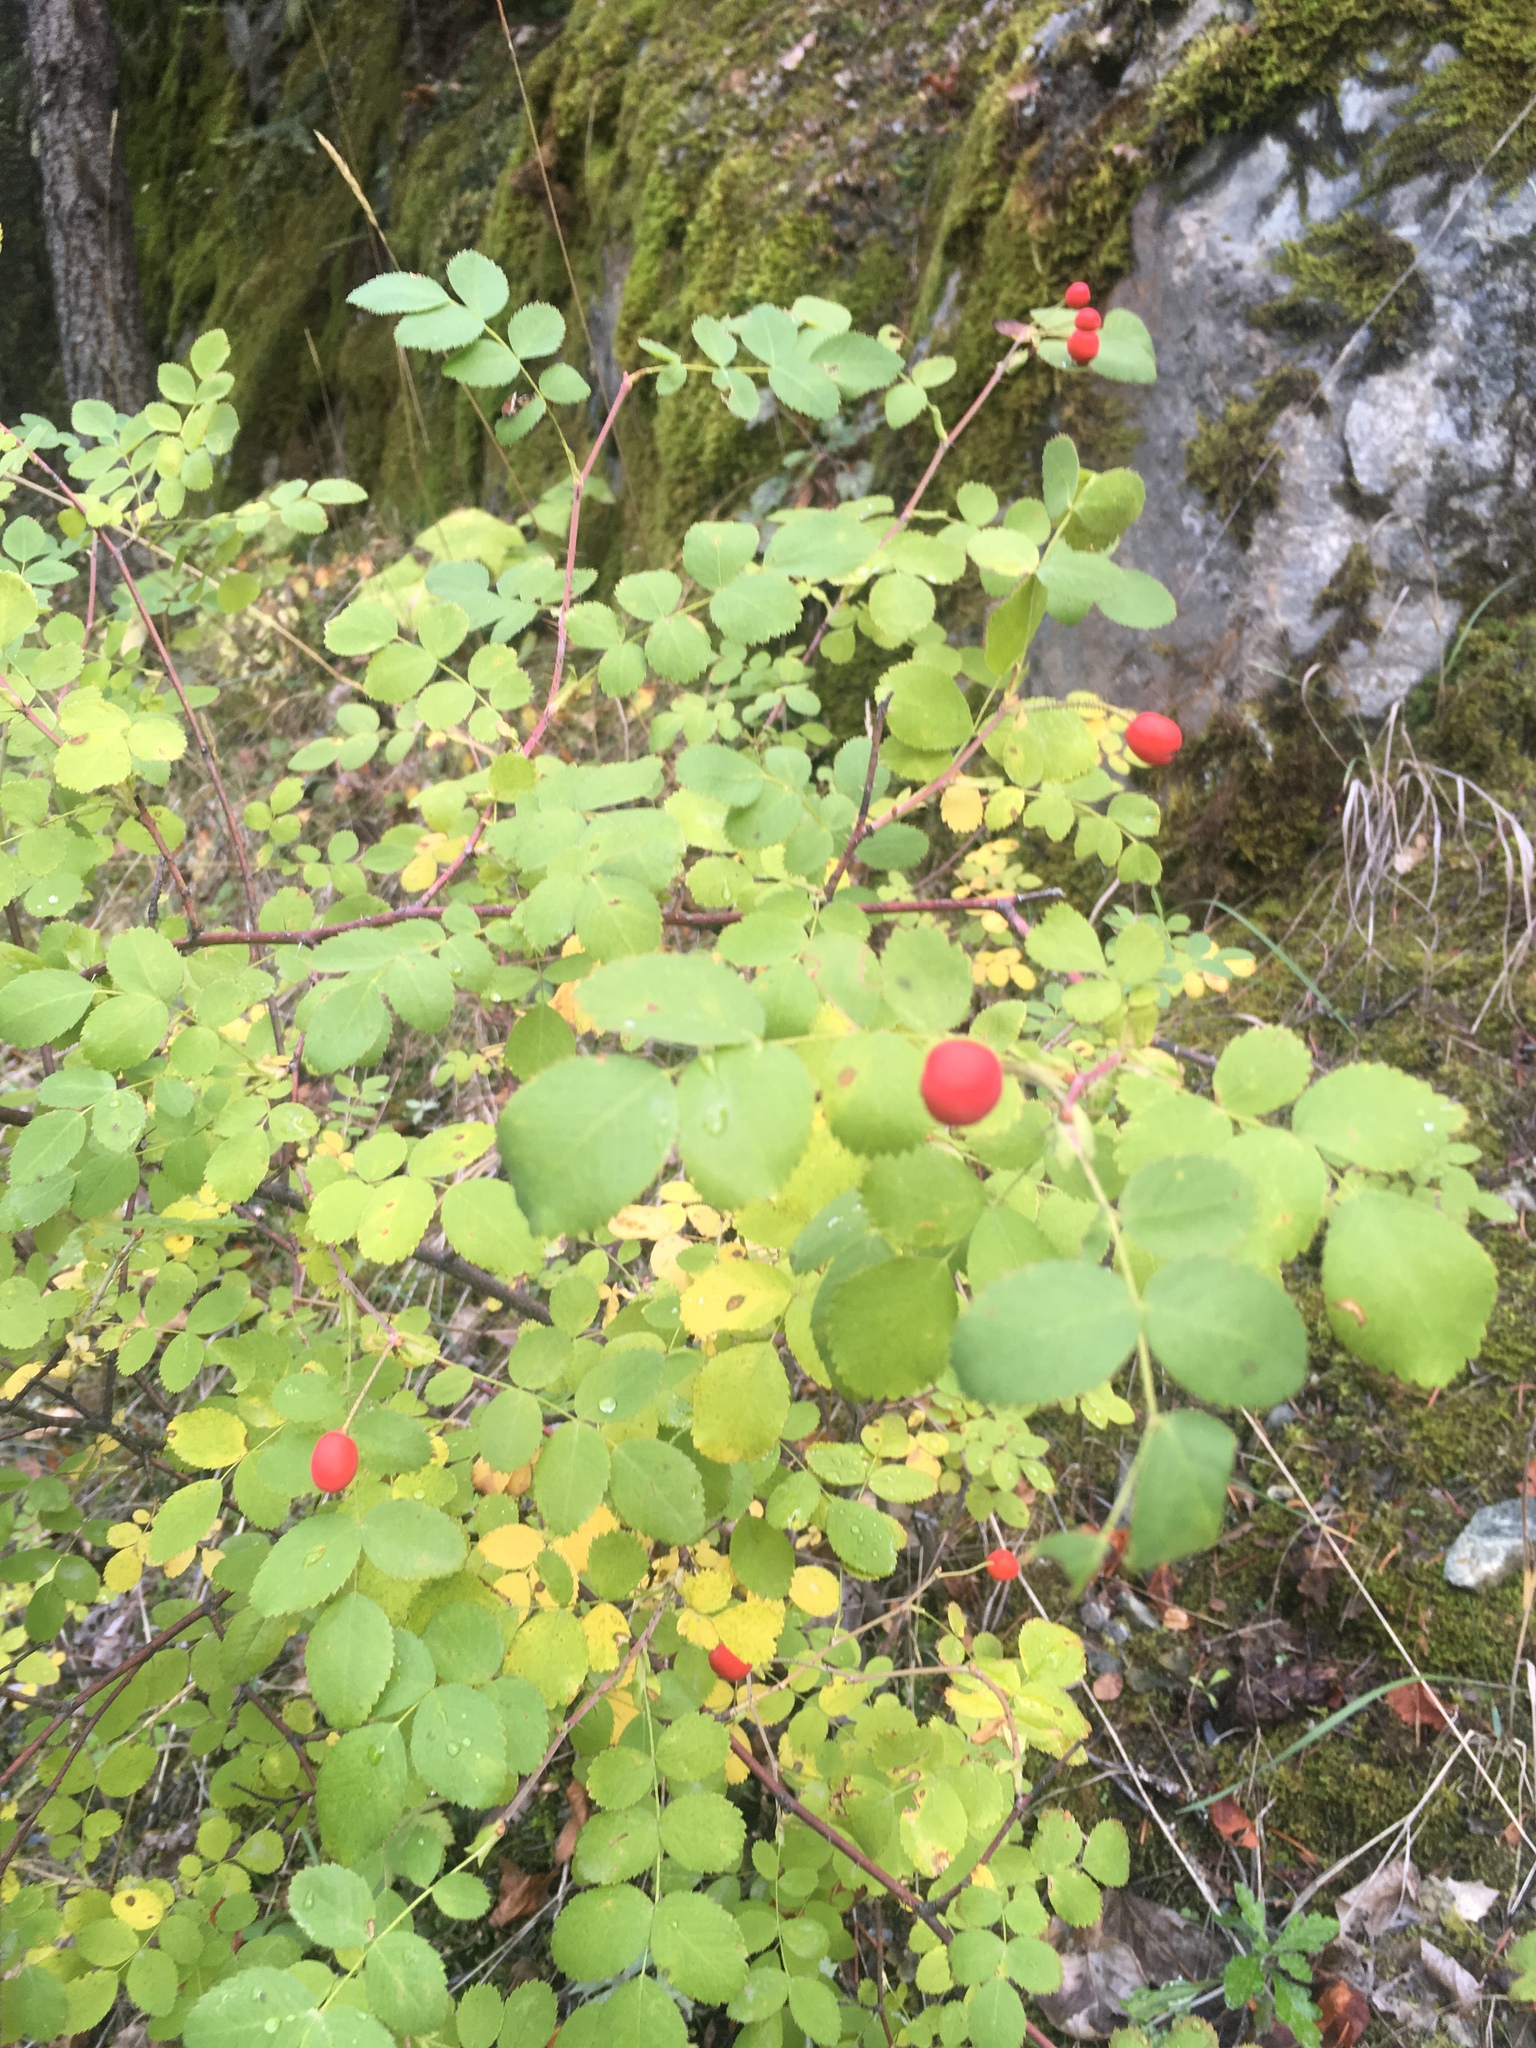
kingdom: Plantae
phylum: Tracheophyta
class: Magnoliopsida
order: Rosales
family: Rosaceae
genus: Rosa
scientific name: Rosa gymnocarpa
